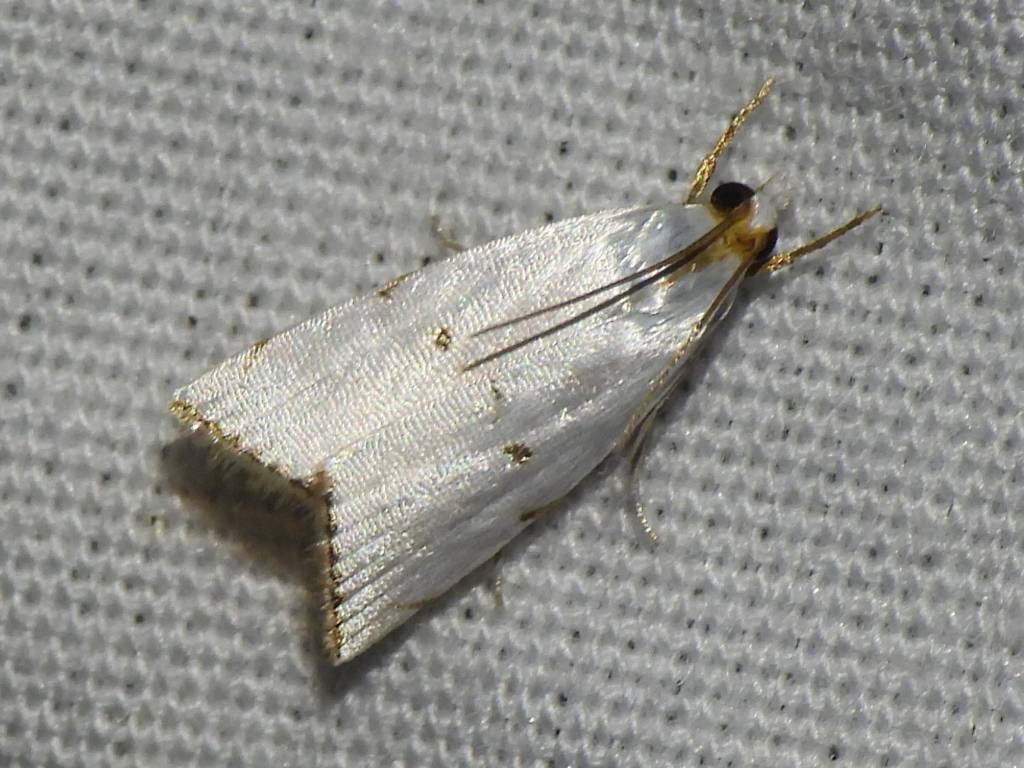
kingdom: Animalia
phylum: Arthropoda
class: Insecta
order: Lepidoptera
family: Crambidae
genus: Argyria
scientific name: Argyria pusillalis
